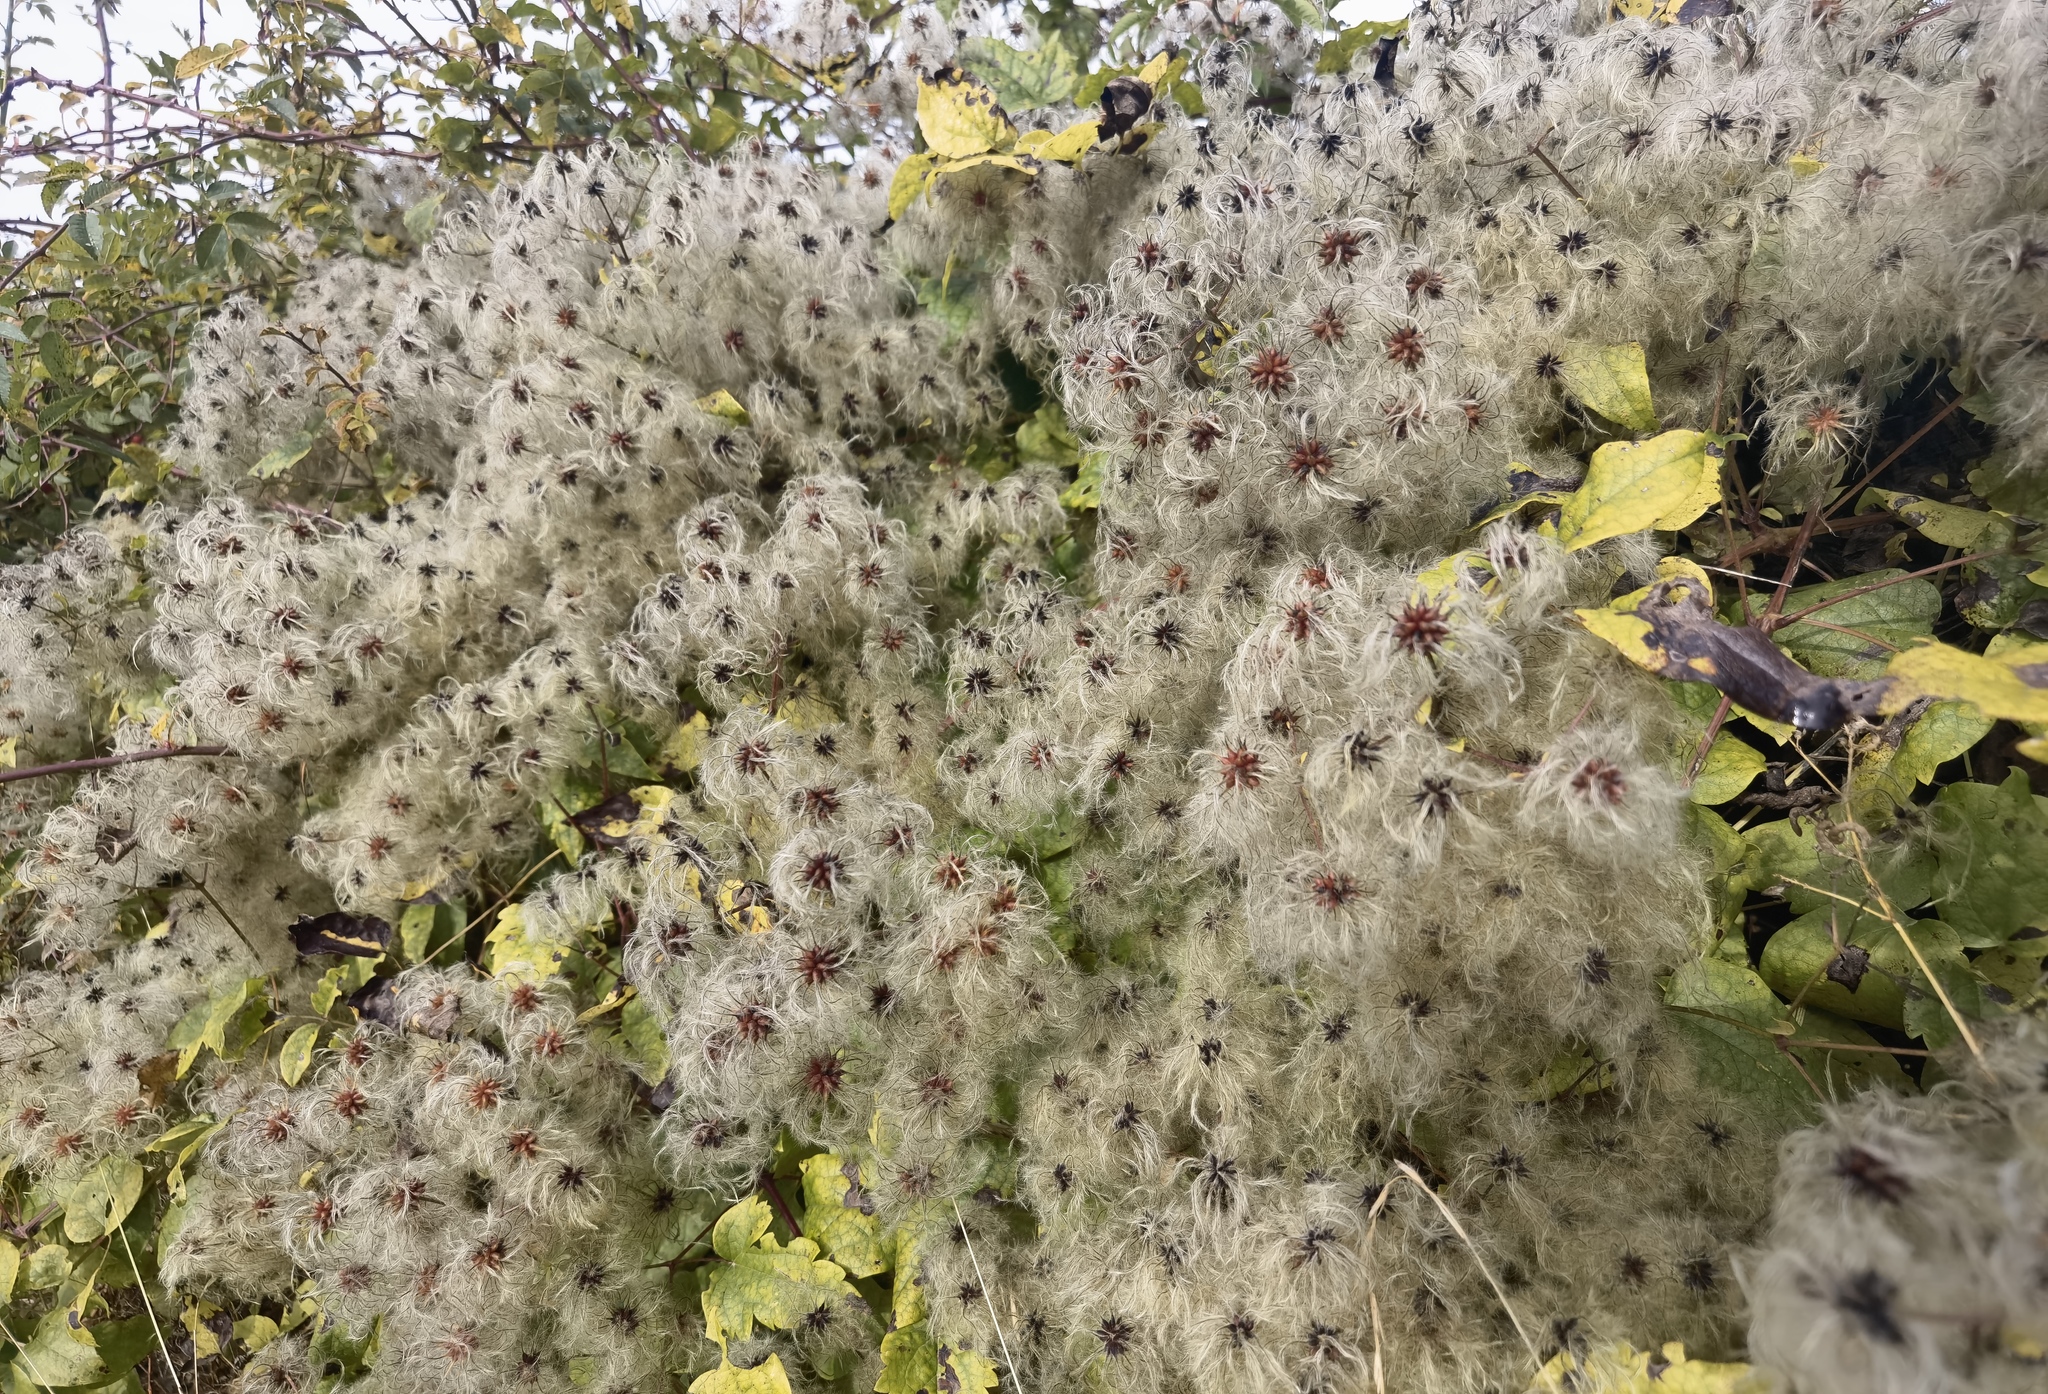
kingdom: Plantae
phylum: Tracheophyta
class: Magnoliopsida
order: Ranunculales
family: Ranunculaceae
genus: Clematis
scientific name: Clematis vitalba
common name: Evergreen clematis
